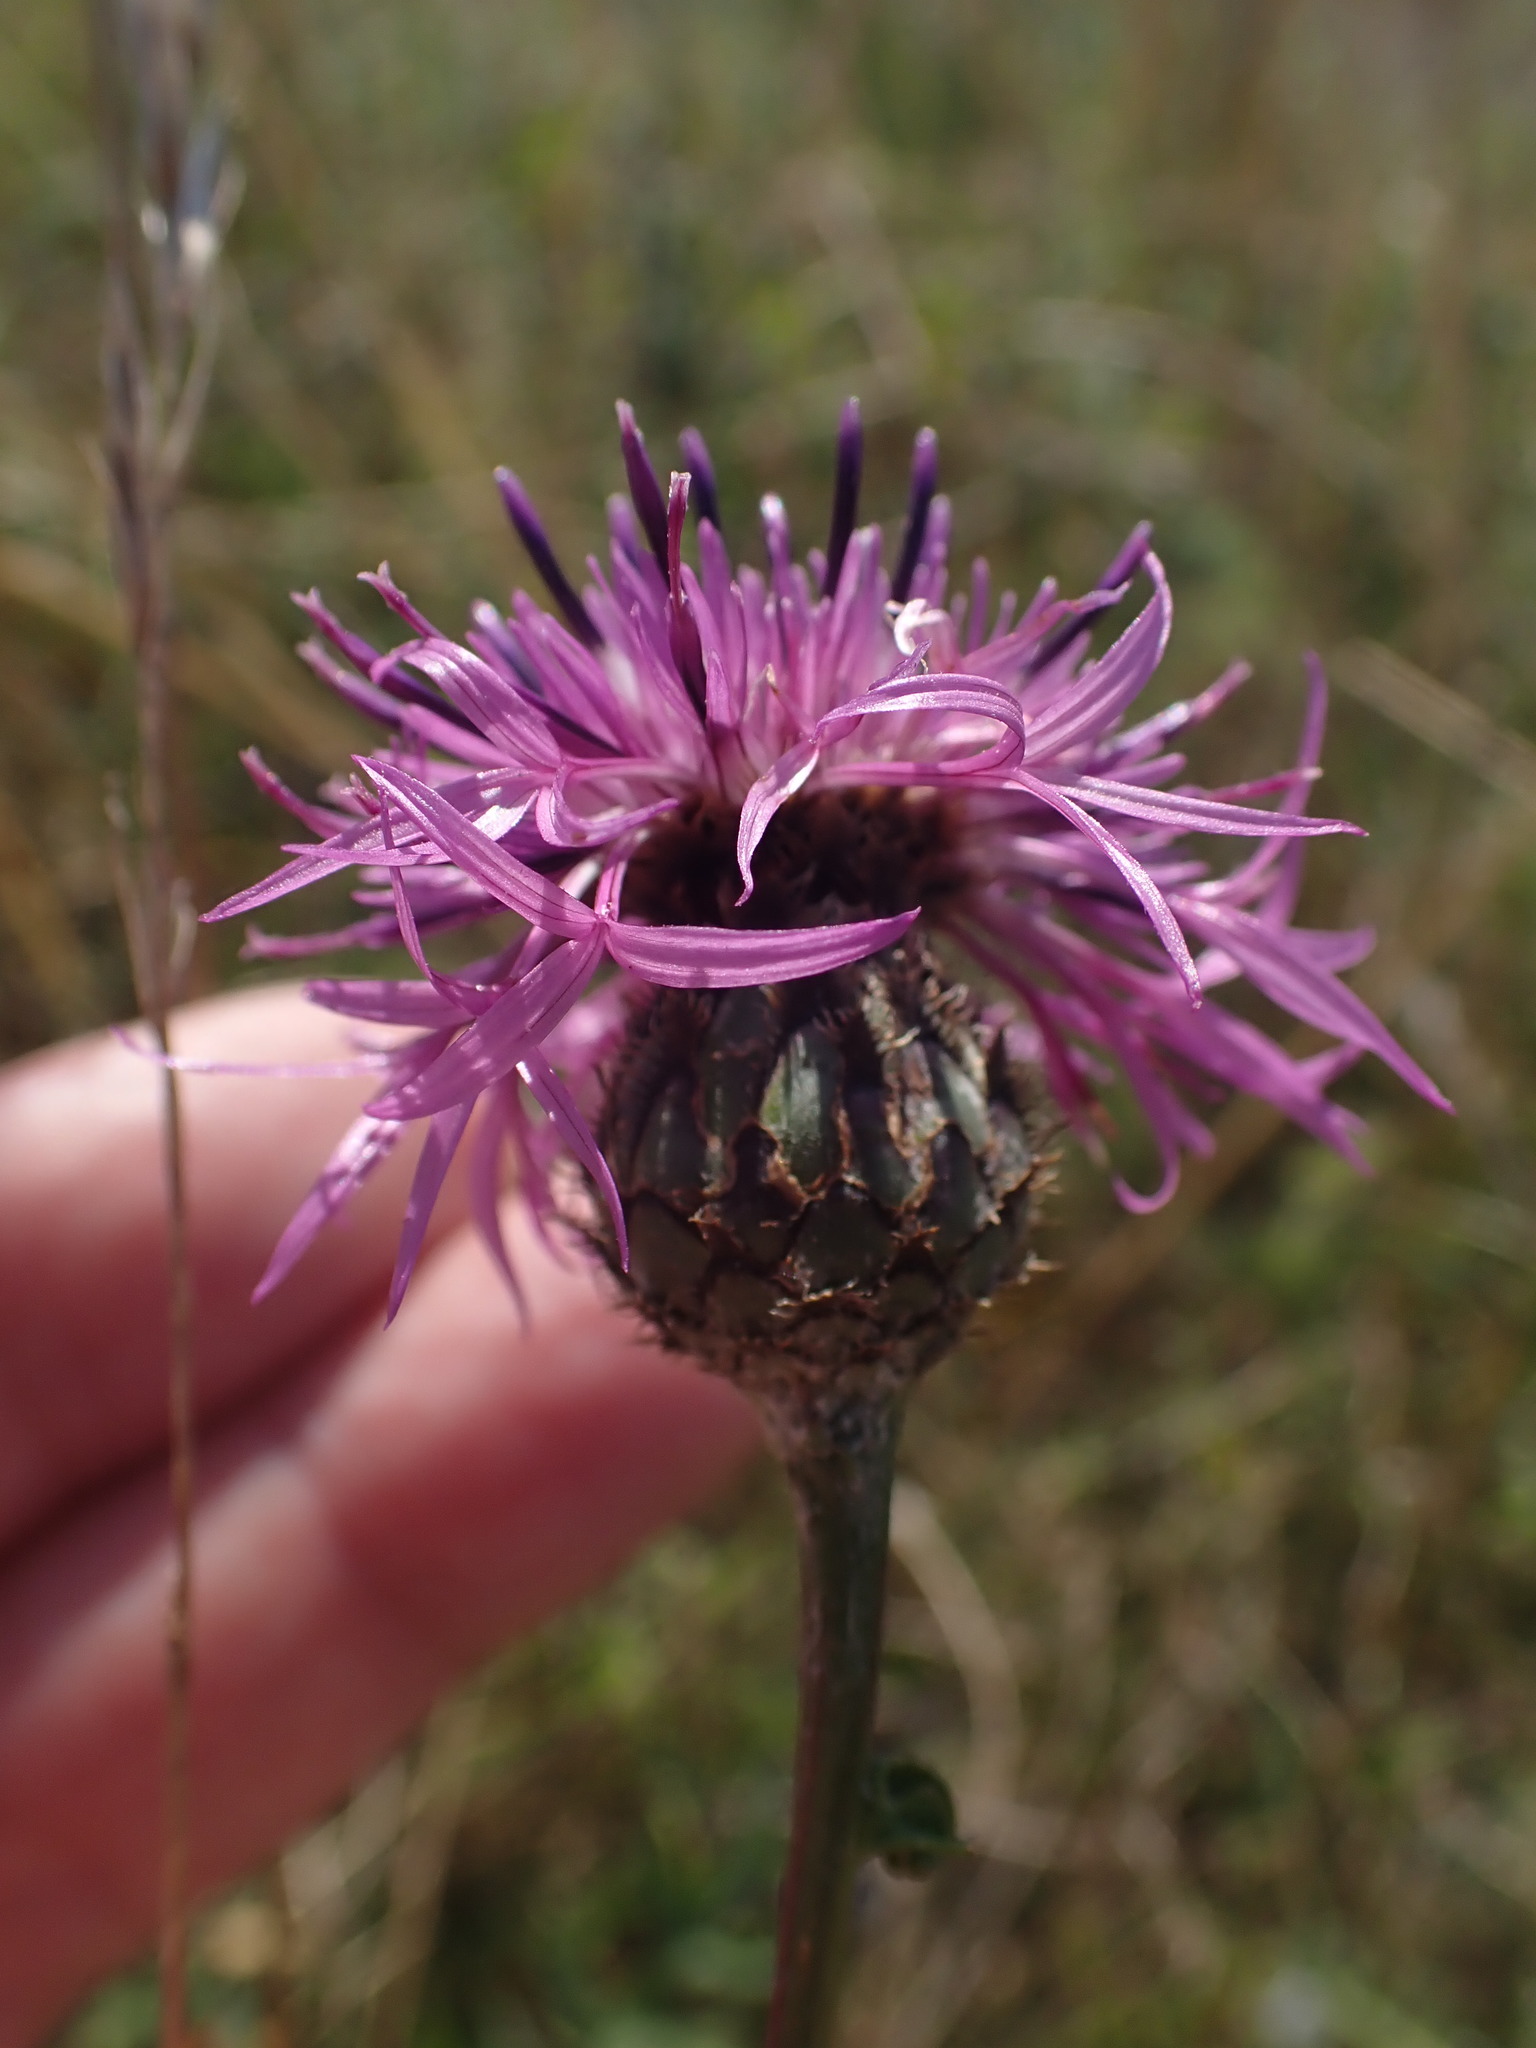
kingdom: Plantae
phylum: Tracheophyta
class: Magnoliopsida
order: Asterales
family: Asteraceae
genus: Centaurea
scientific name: Centaurea scabiosa
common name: Greater knapweed
